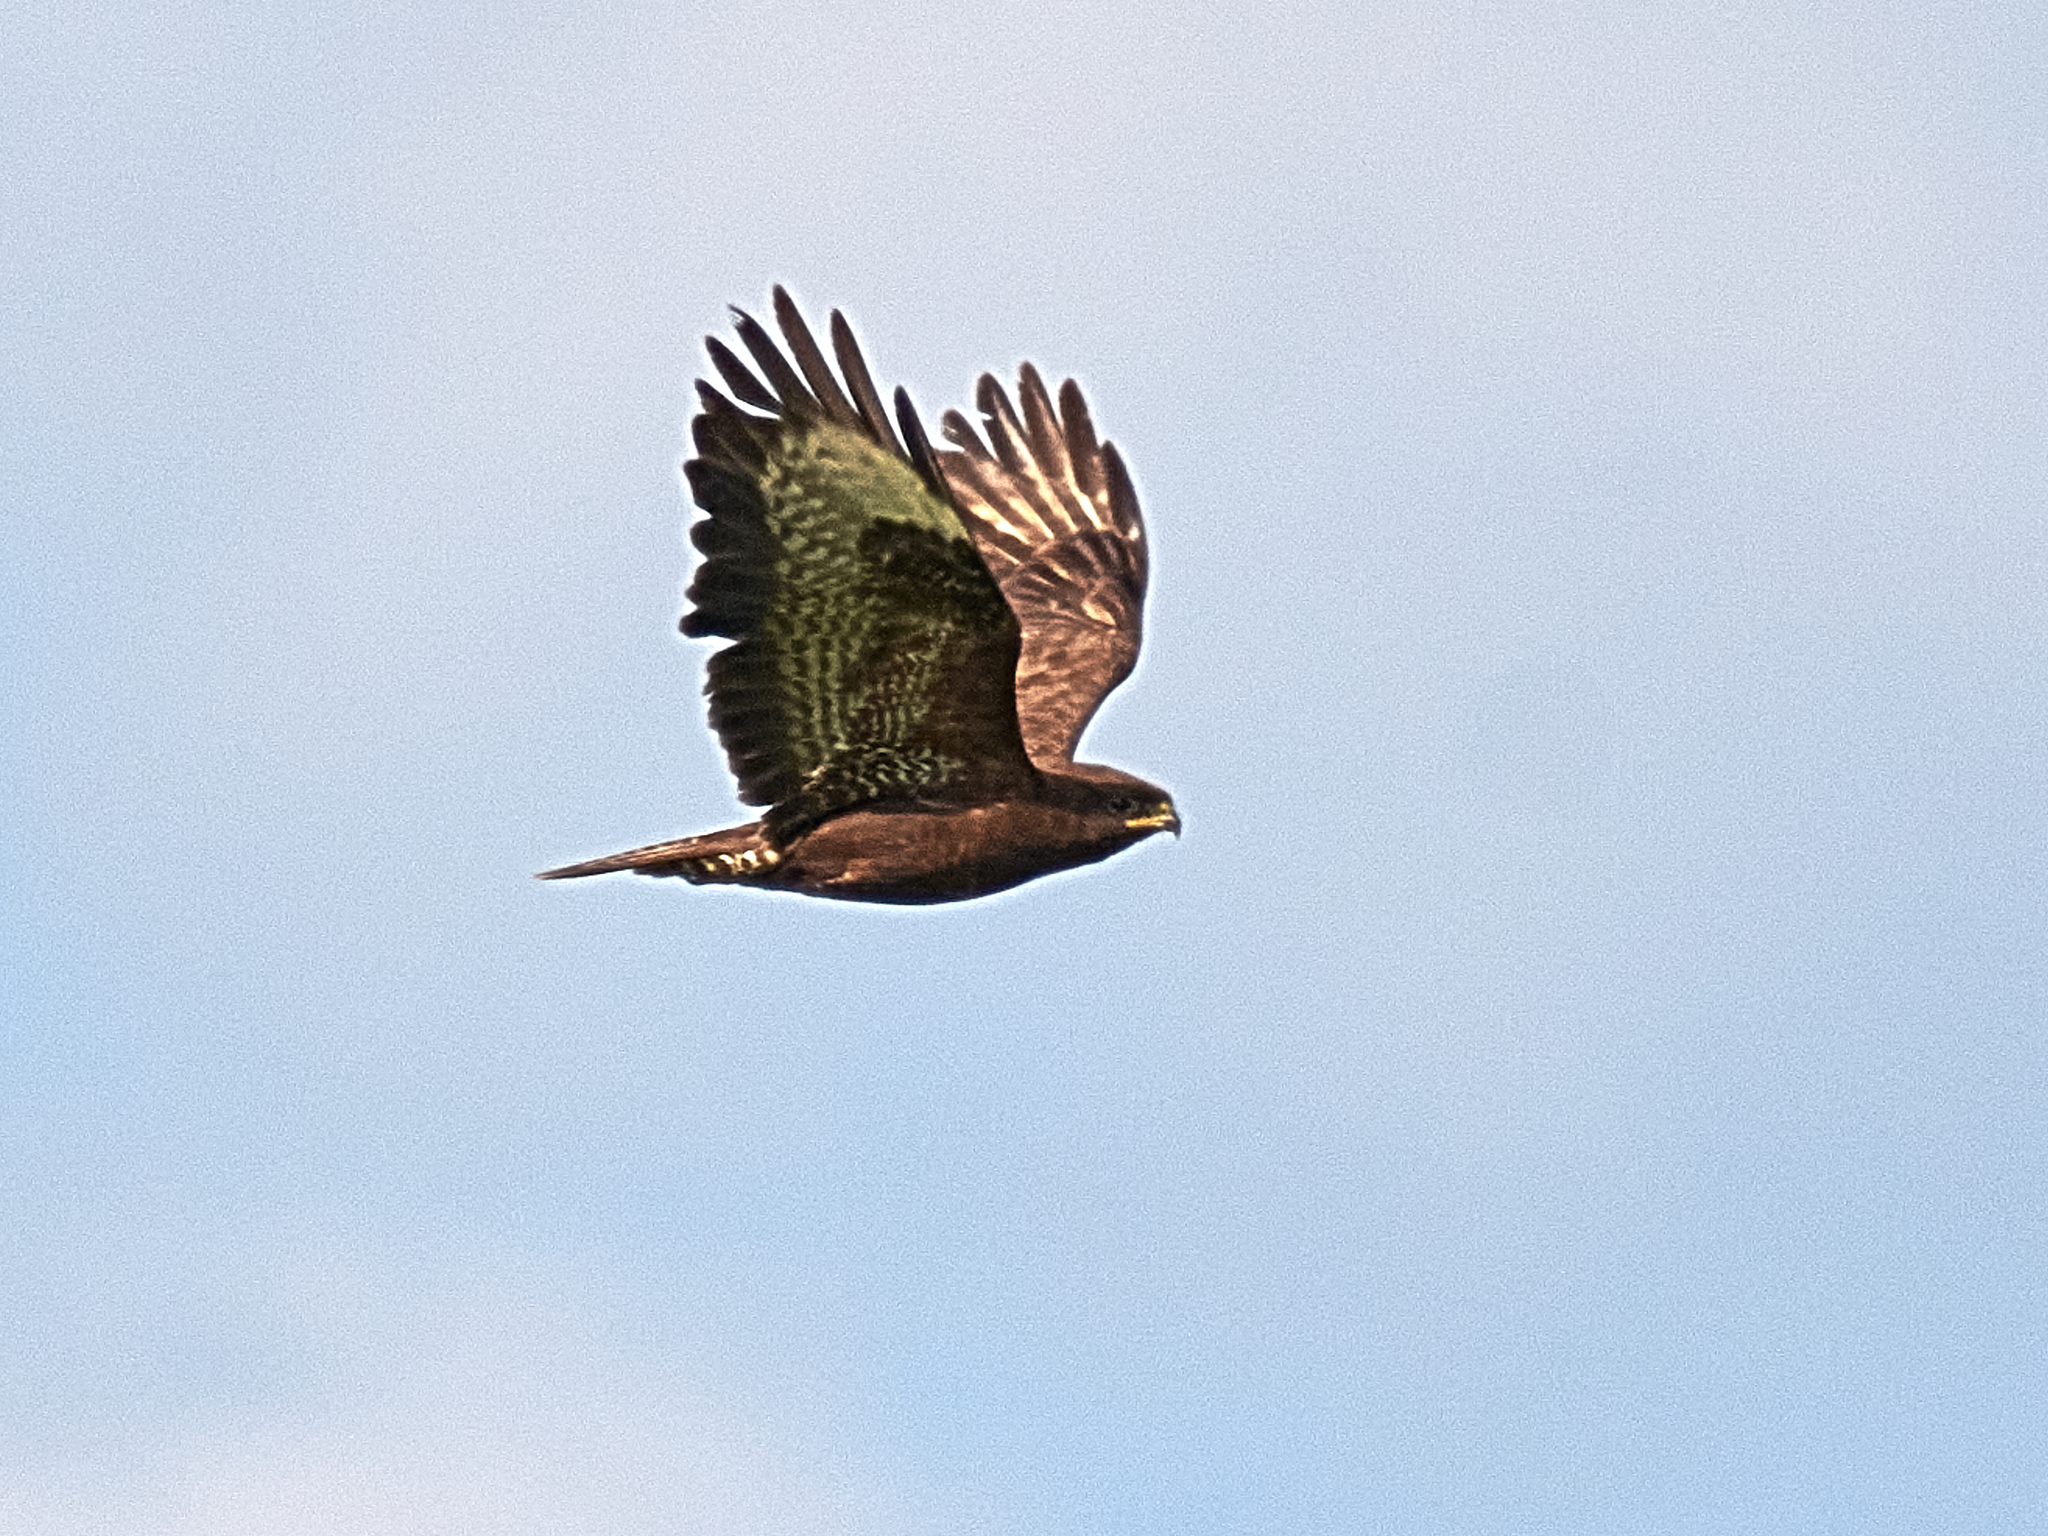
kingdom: Animalia
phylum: Chordata
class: Aves
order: Accipitriformes
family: Accipitridae
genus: Buteo
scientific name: Buteo buteo
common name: Common buzzard
